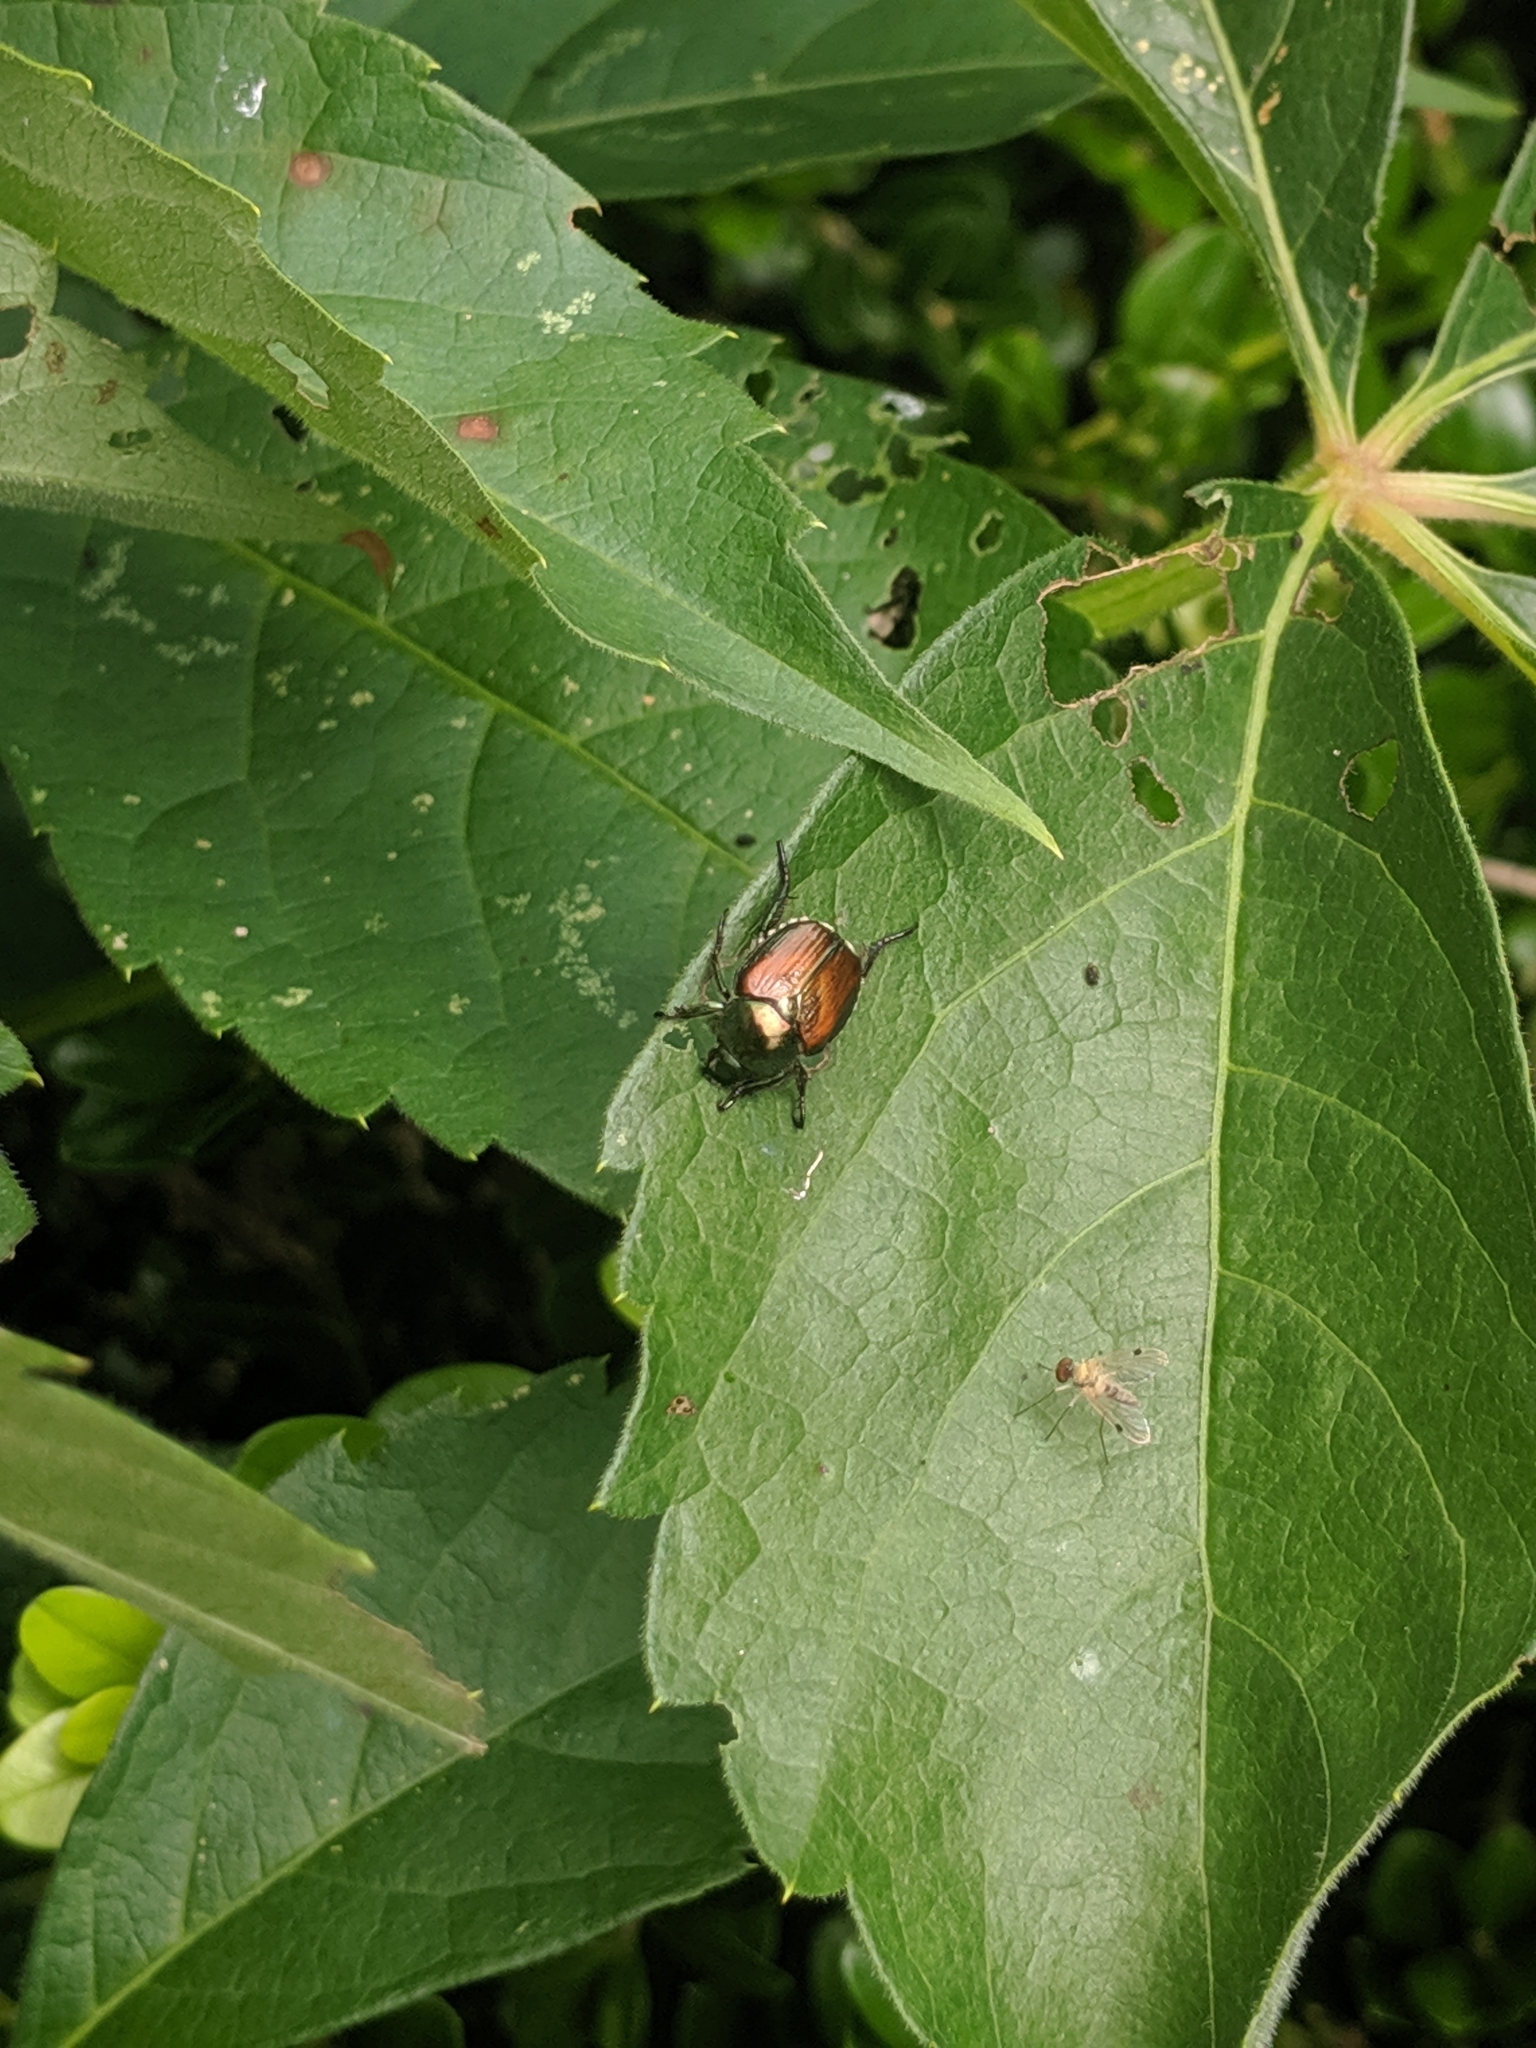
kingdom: Animalia
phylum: Arthropoda
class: Insecta
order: Coleoptera
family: Scarabaeidae
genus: Popillia
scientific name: Popillia japonica
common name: Japanese beetle
